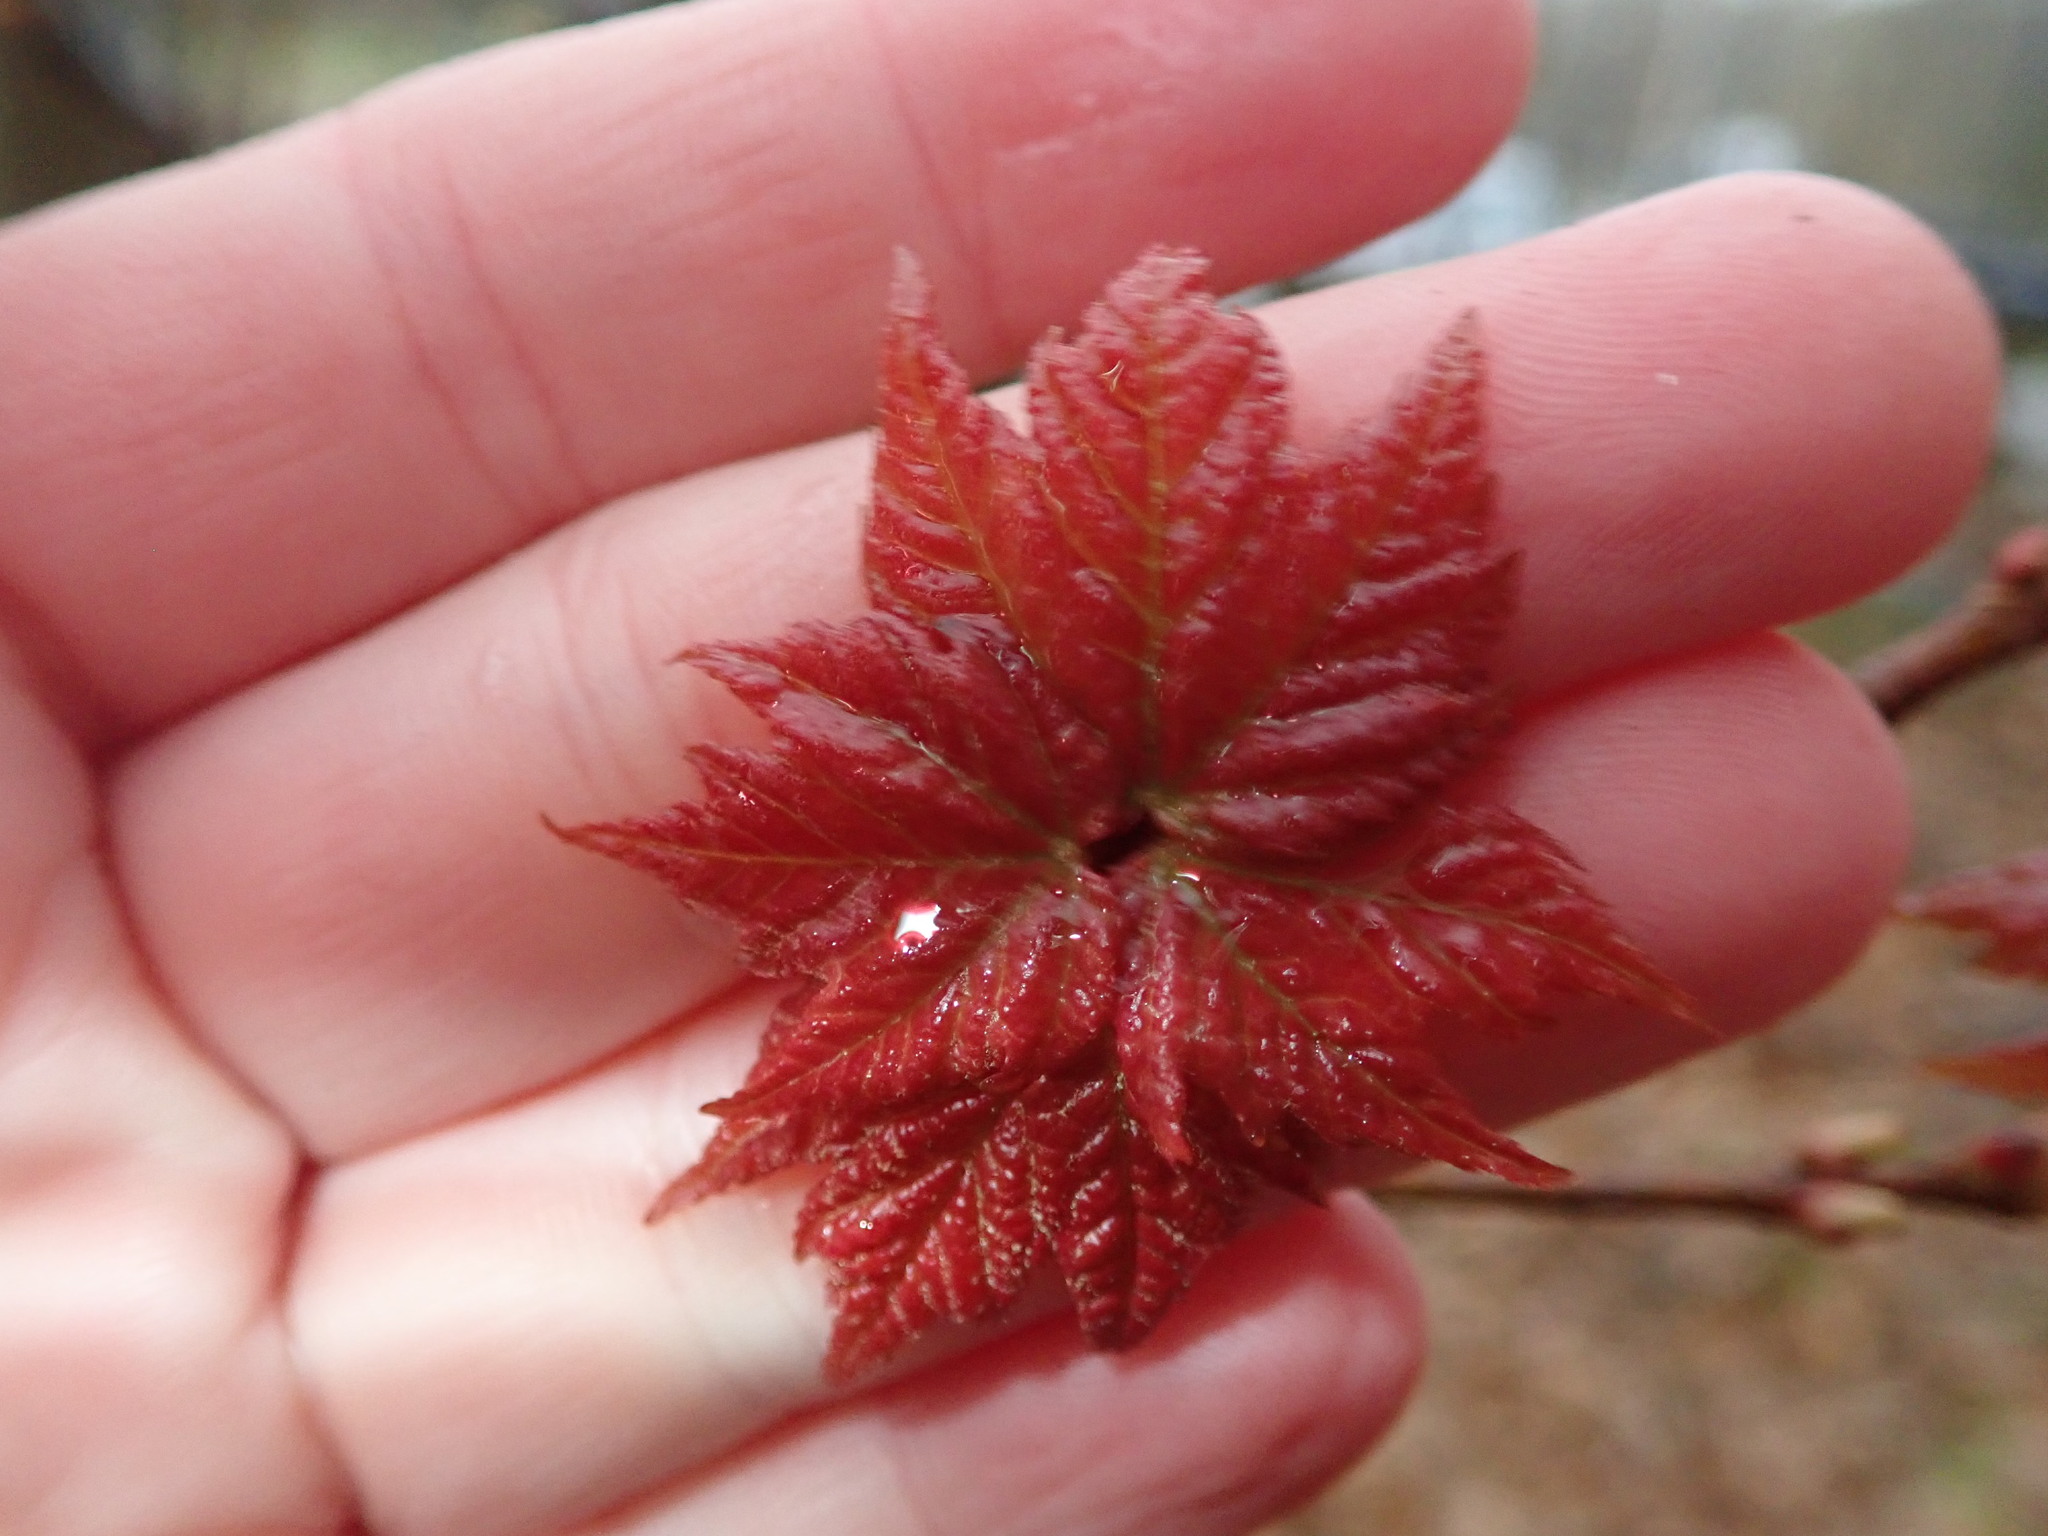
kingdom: Plantae
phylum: Tracheophyta
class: Magnoliopsida
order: Sapindales
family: Sapindaceae
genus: Acer
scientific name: Acer rubrum
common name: Red maple
